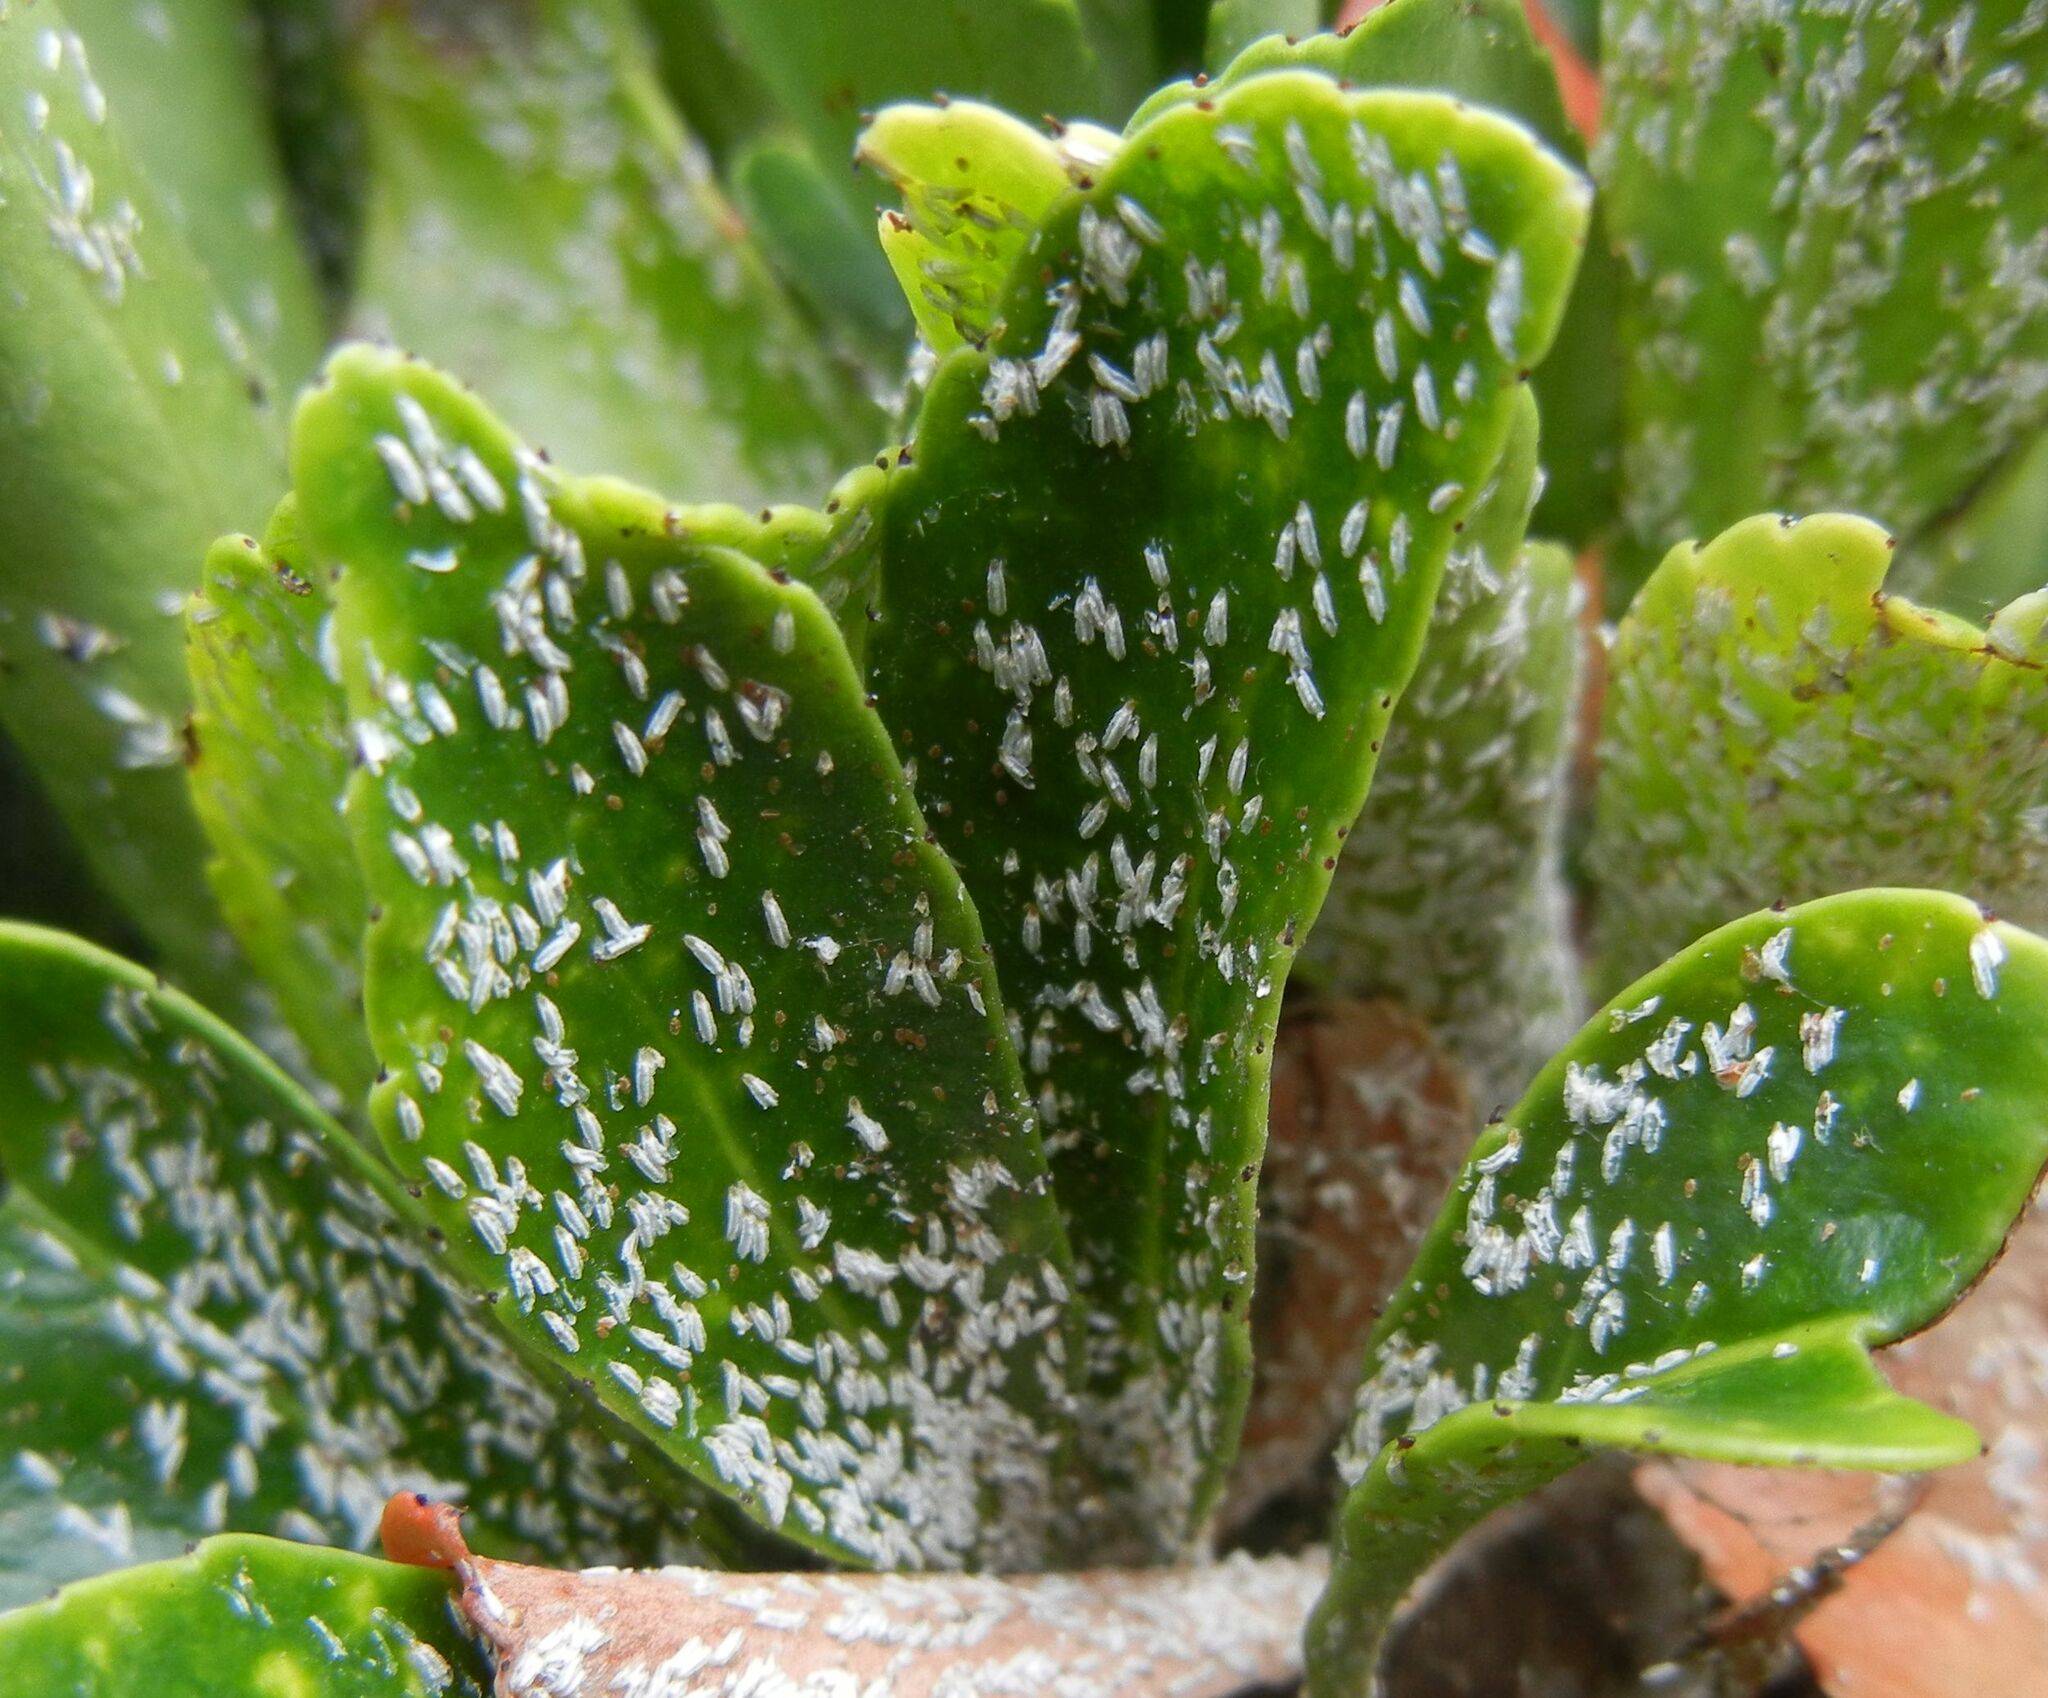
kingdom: Animalia
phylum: Arthropoda
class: Insecta
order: Hemiptera
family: Diaspididae
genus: Unaspis
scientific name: Unaspis euonymi
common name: Euonymus scale
